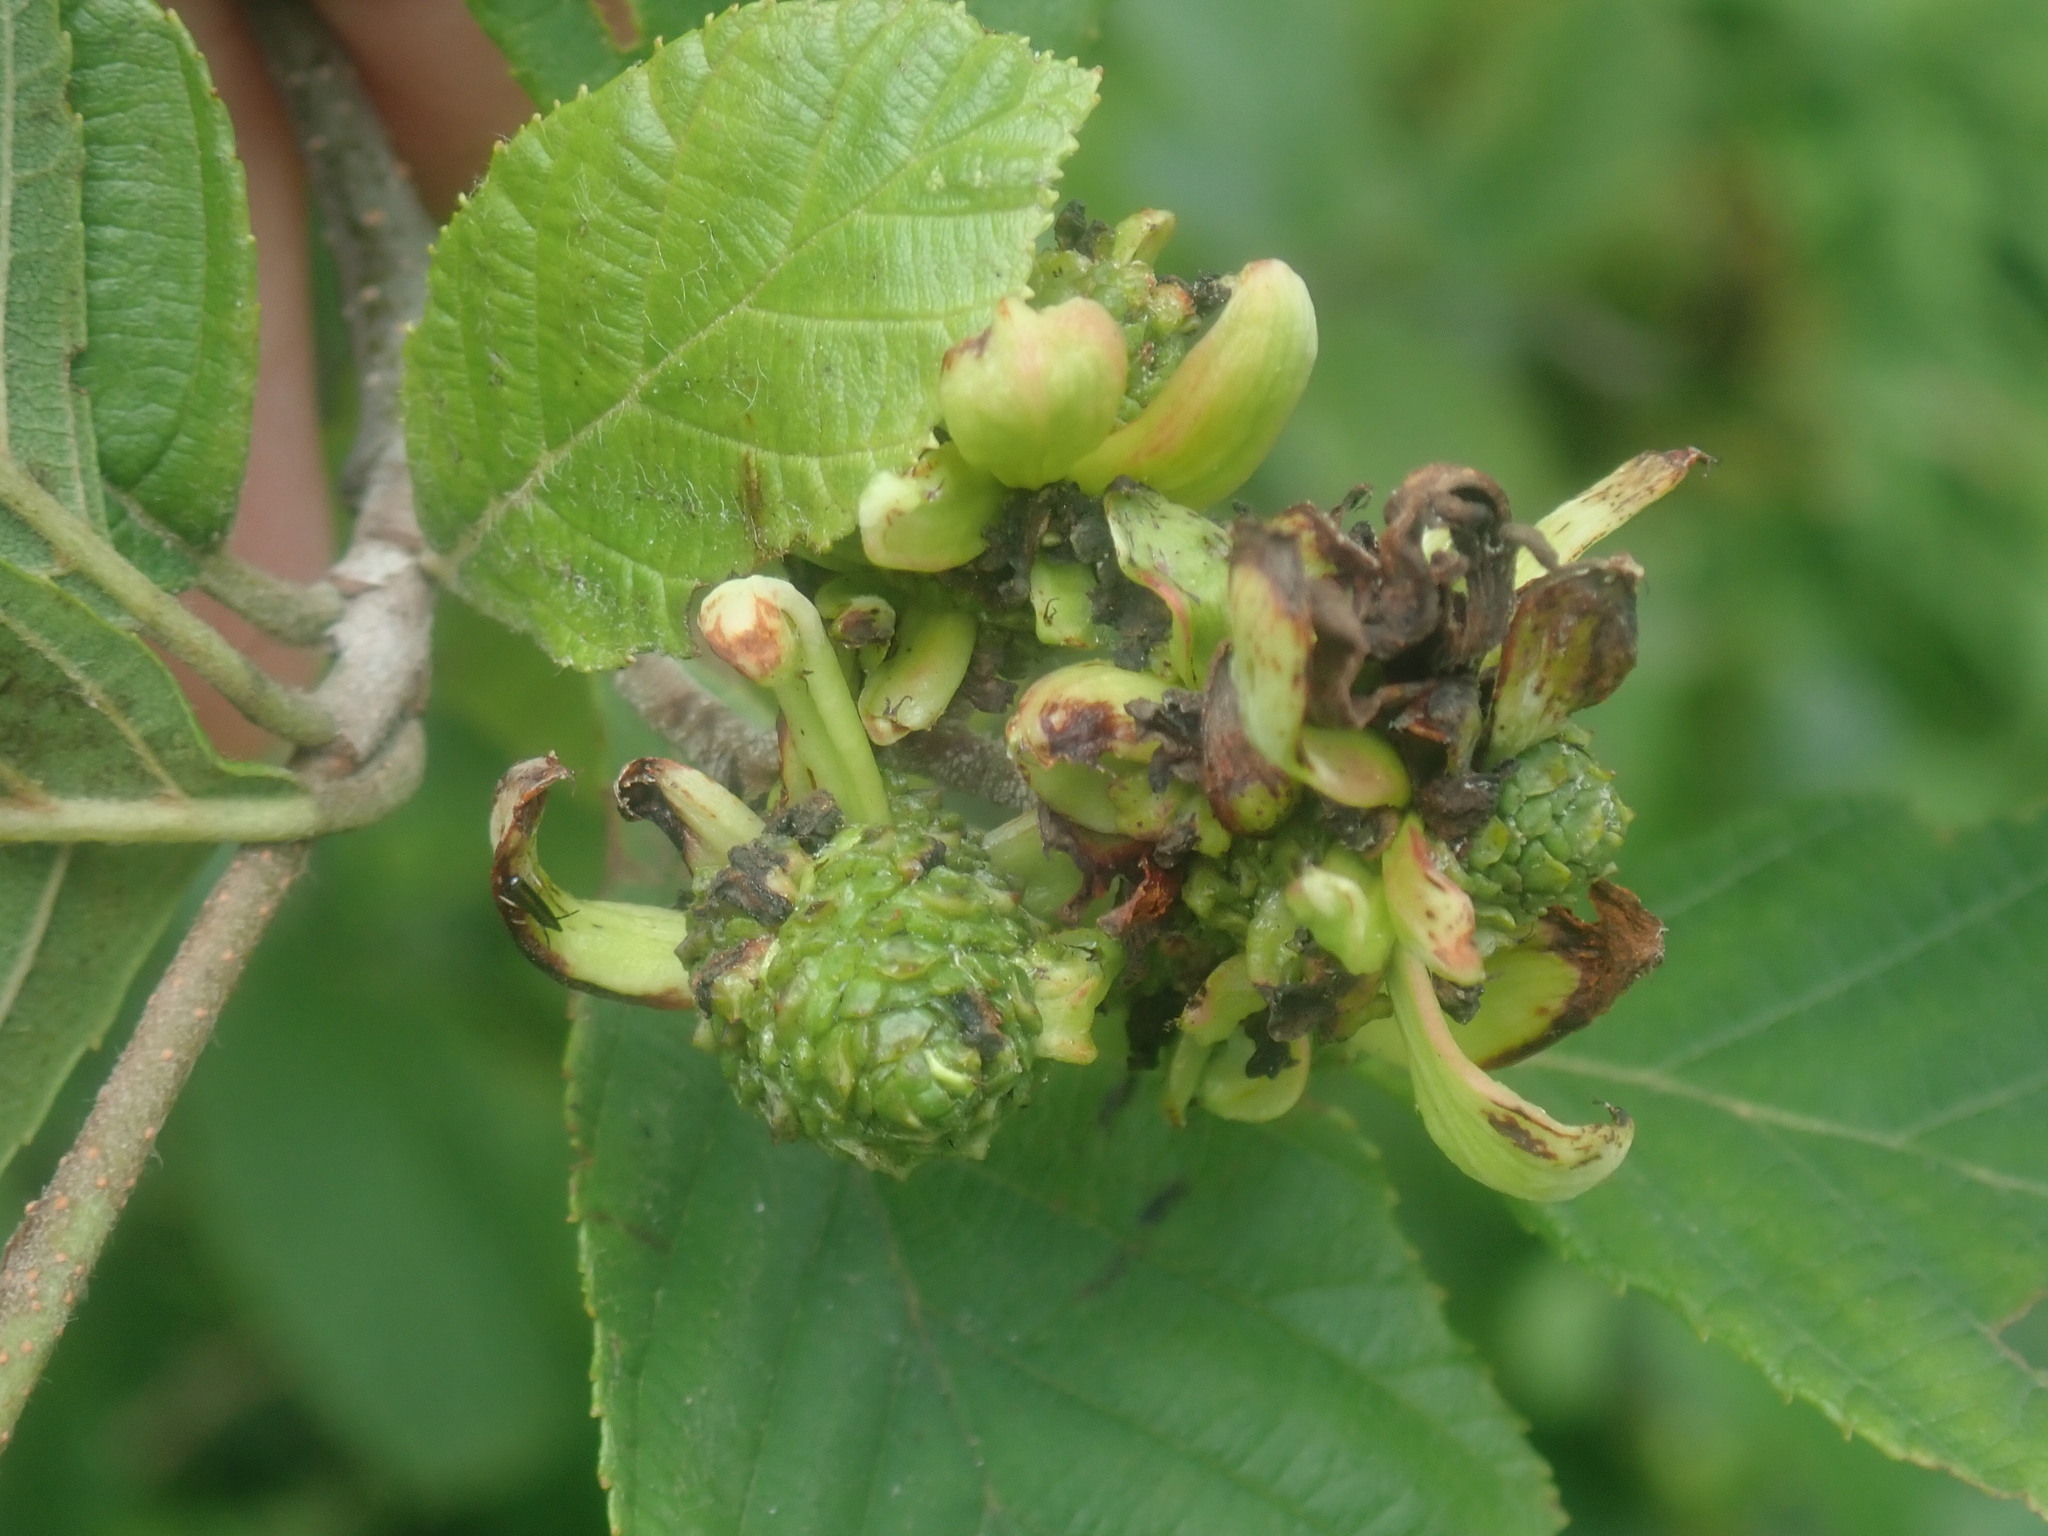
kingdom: Fungi
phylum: Ascomycota
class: Taphrinomycetes
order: Taphrinales
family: Taphrinaceae
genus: Taphrina
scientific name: Taphrina robinsoniana
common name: Eastern american alder tongue gall fungus
